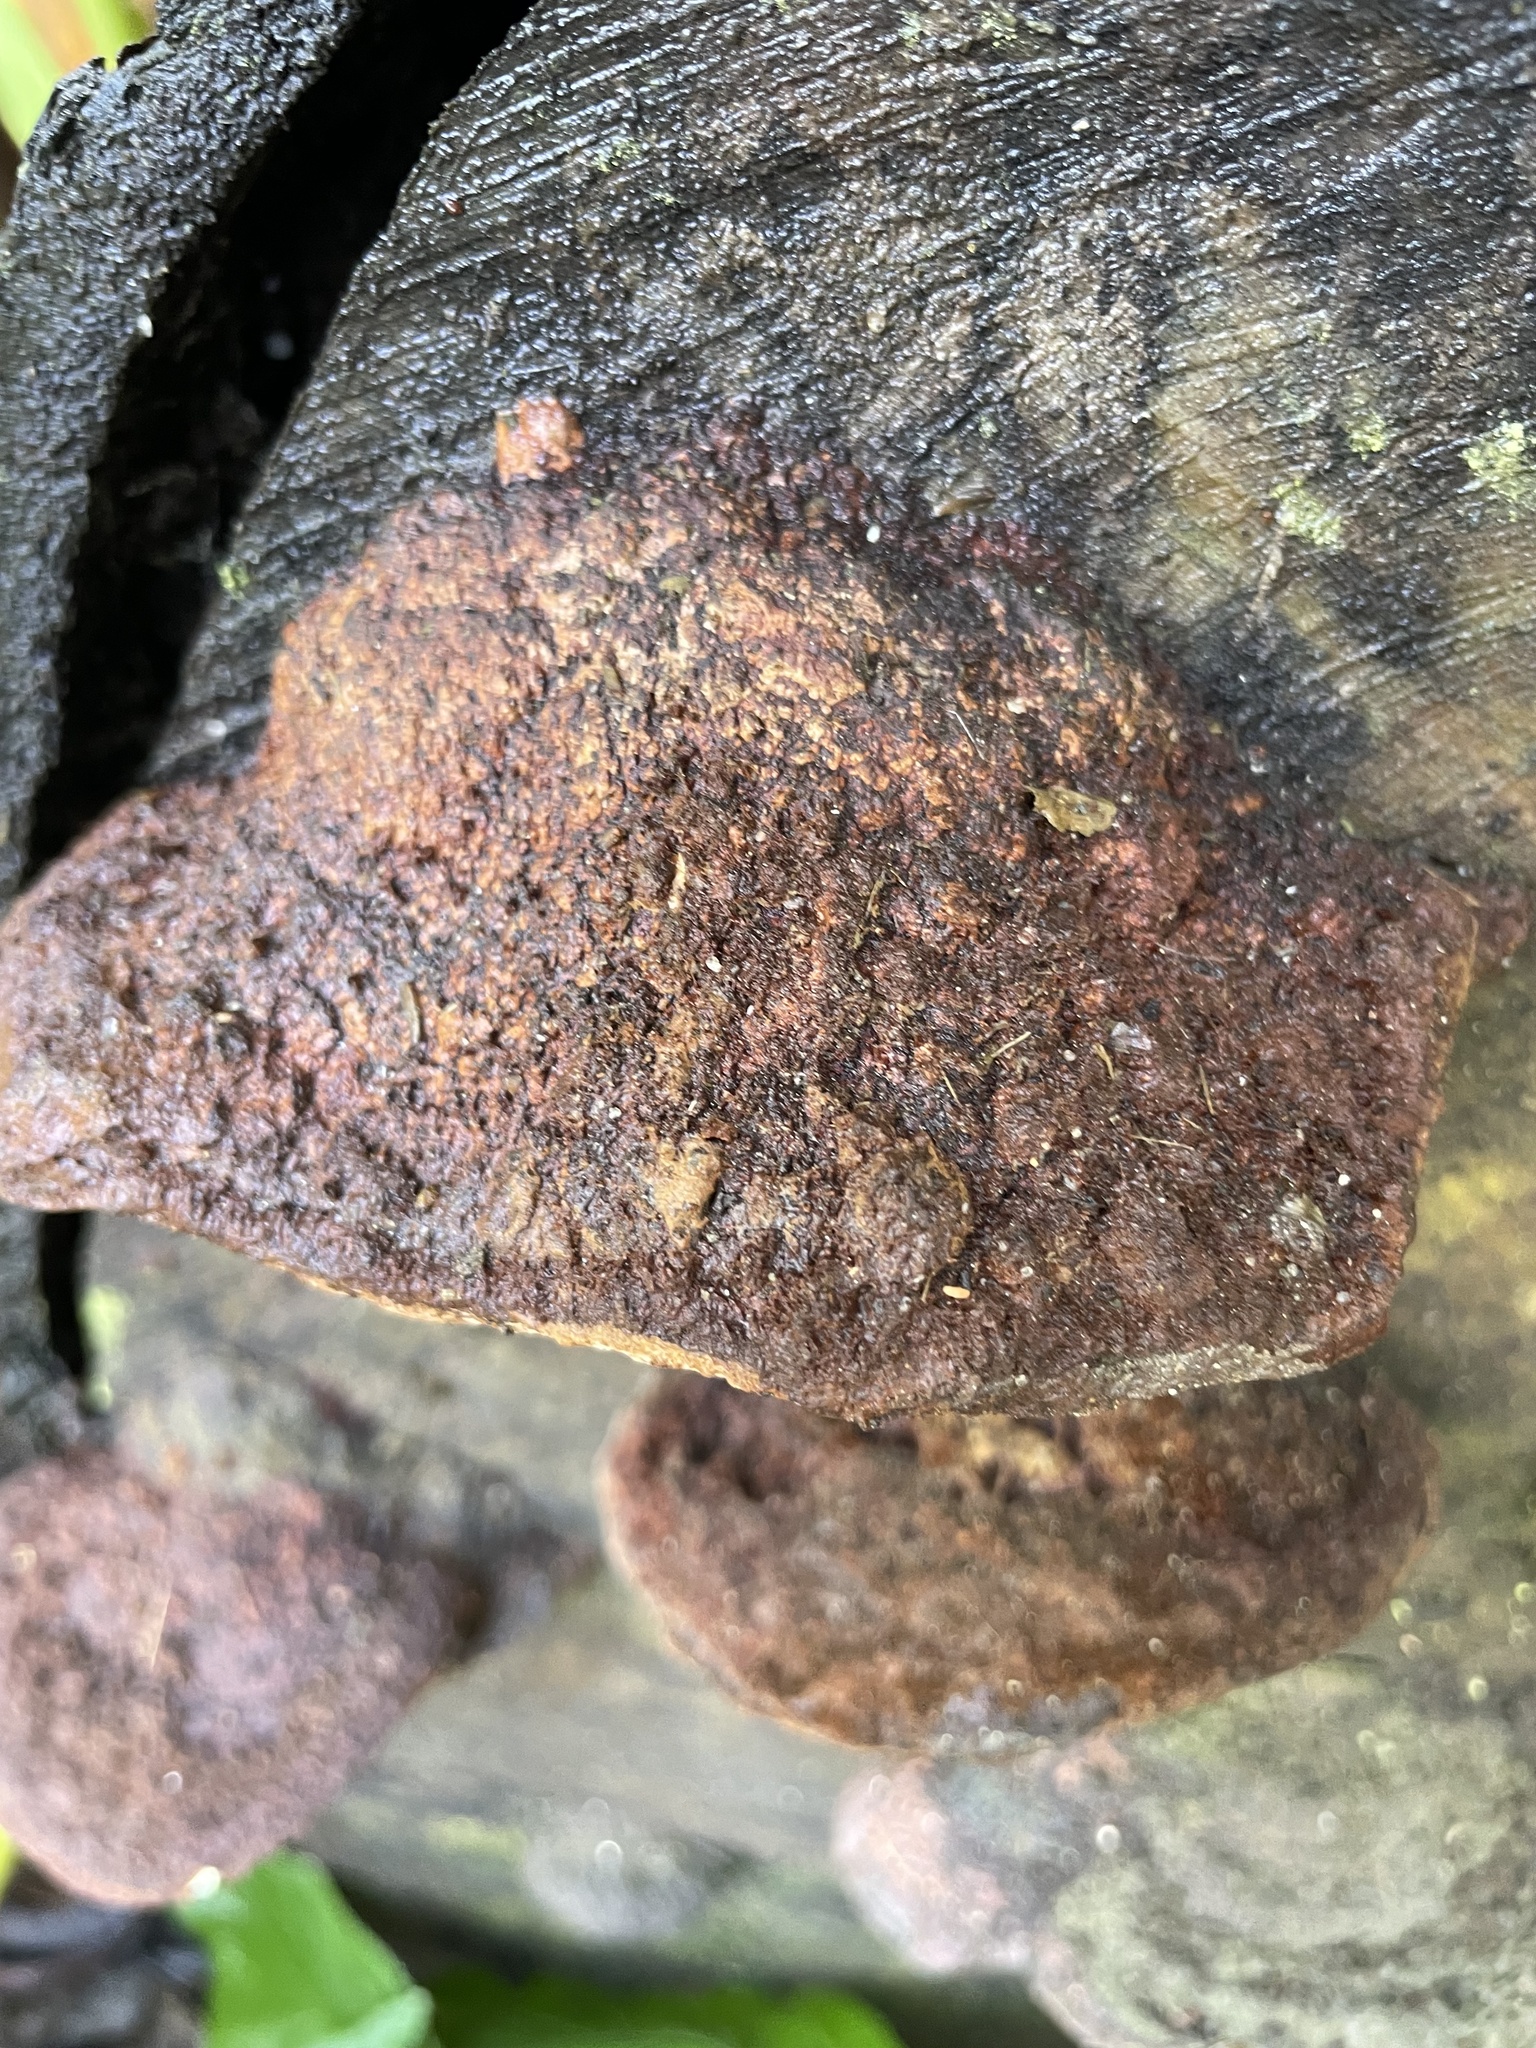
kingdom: Fungi
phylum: Basidiomycota
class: Agaricomycetes
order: Hymenochaetales
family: Hymenochaetaceae
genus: Phellinus
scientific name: Phellinus gilvus
